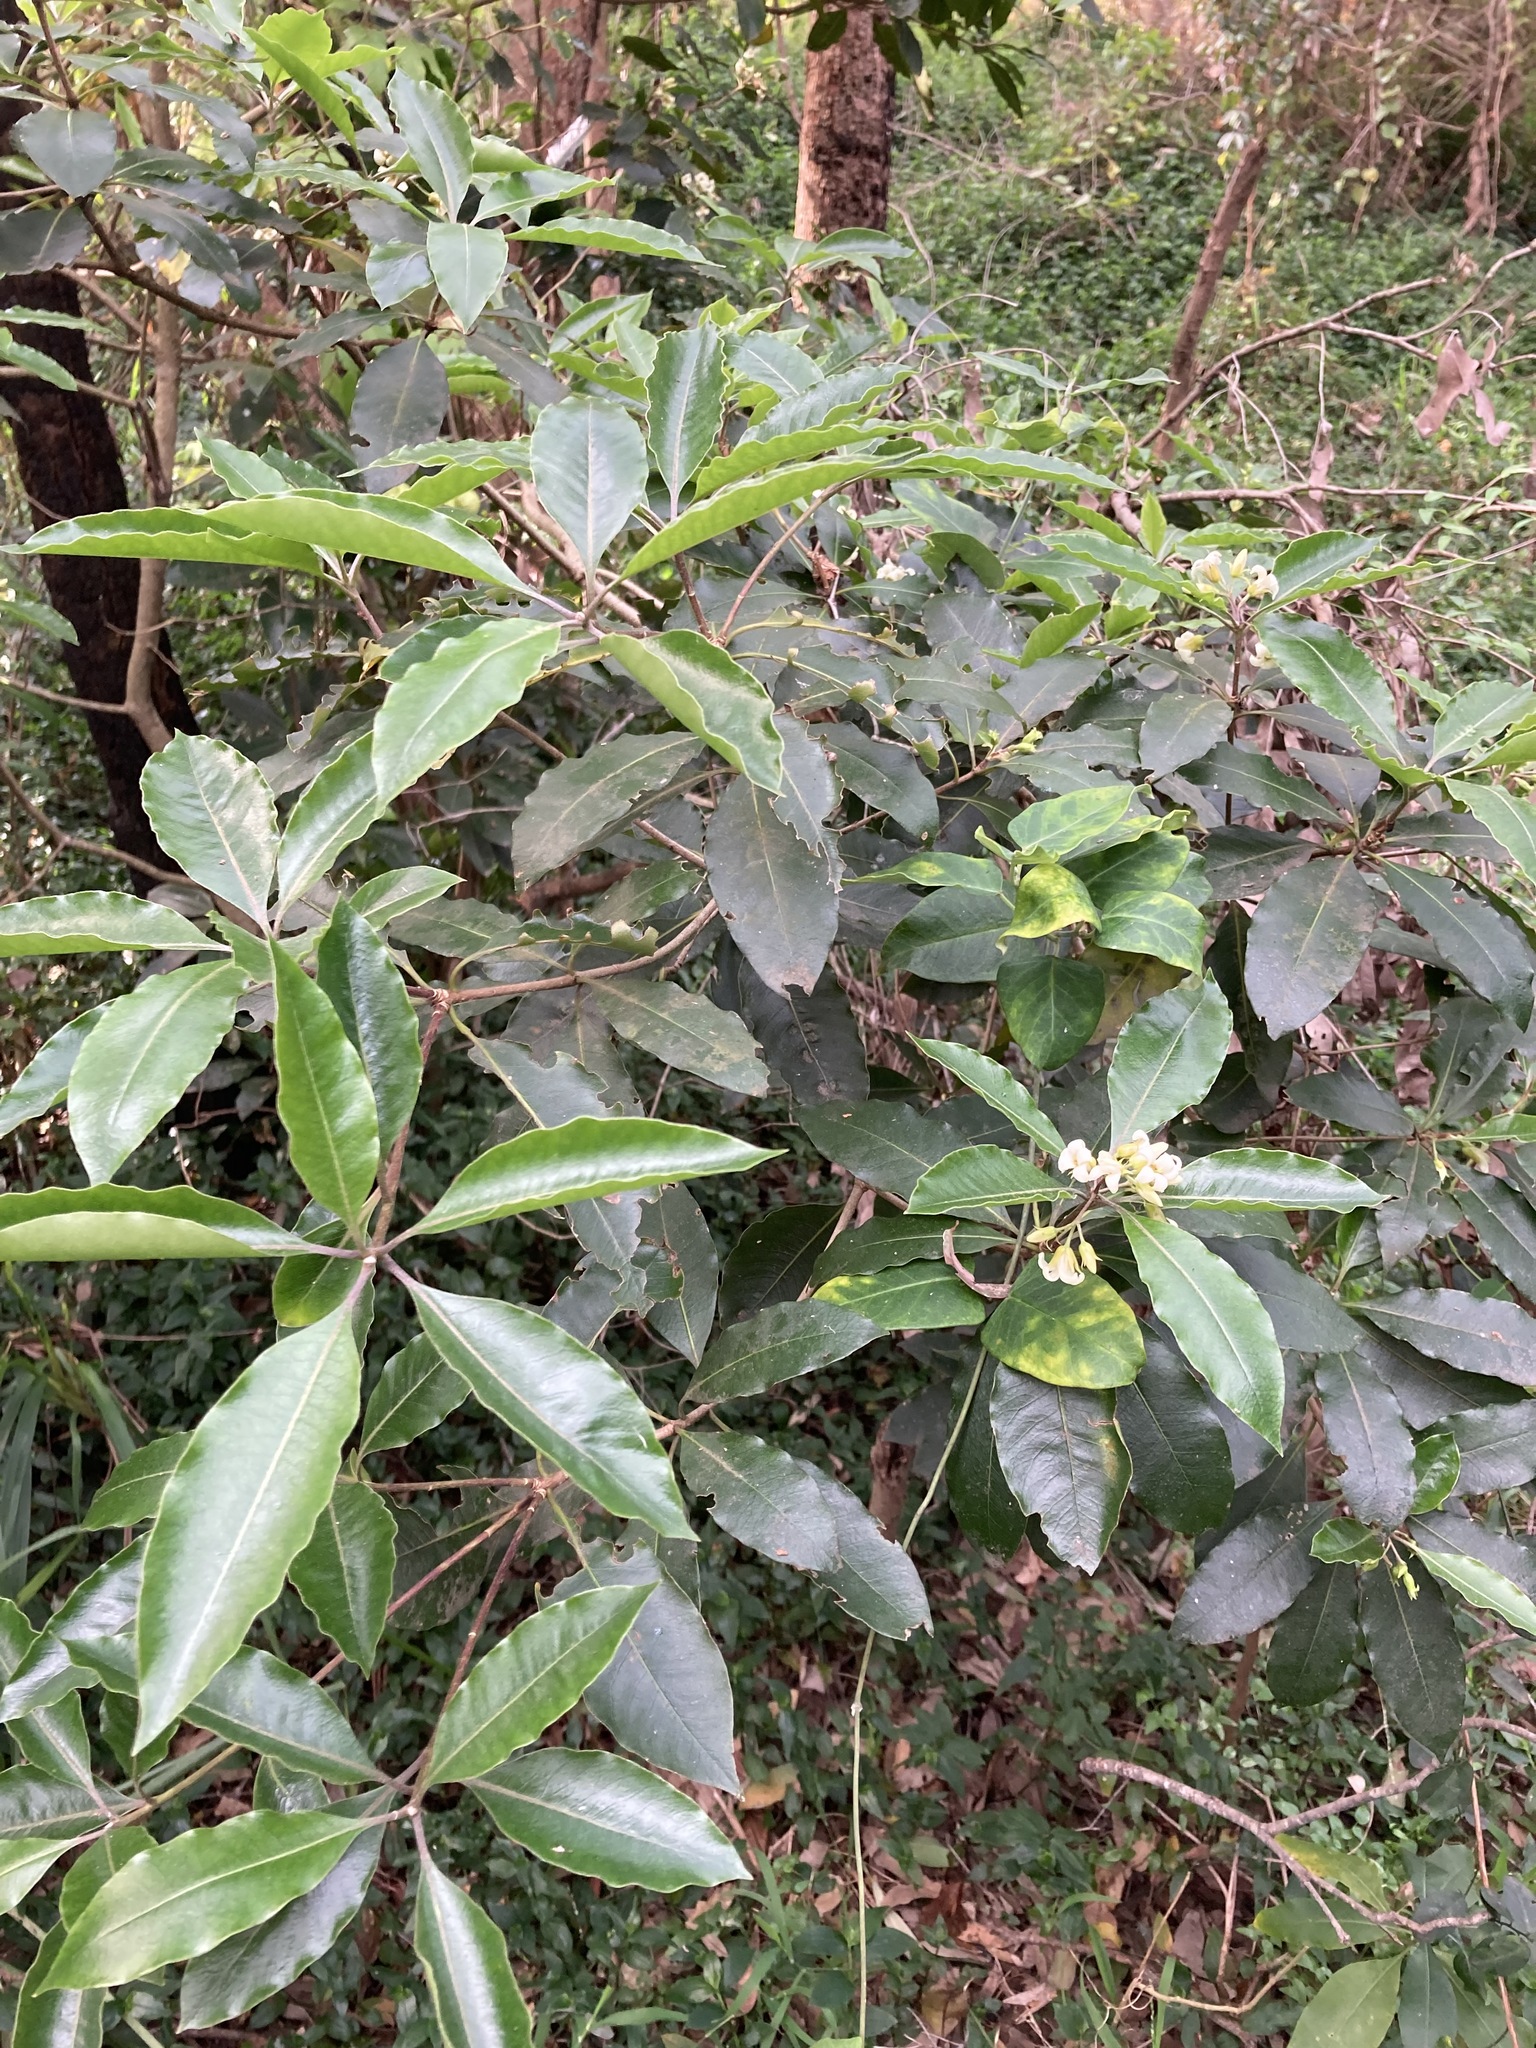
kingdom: Plantae
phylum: Tracheophyta
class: Magnoliopsida
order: Apiales
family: Pittosporaceae
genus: Pittosporum
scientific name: Pittosporum undulatum
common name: Australian cheesewood
